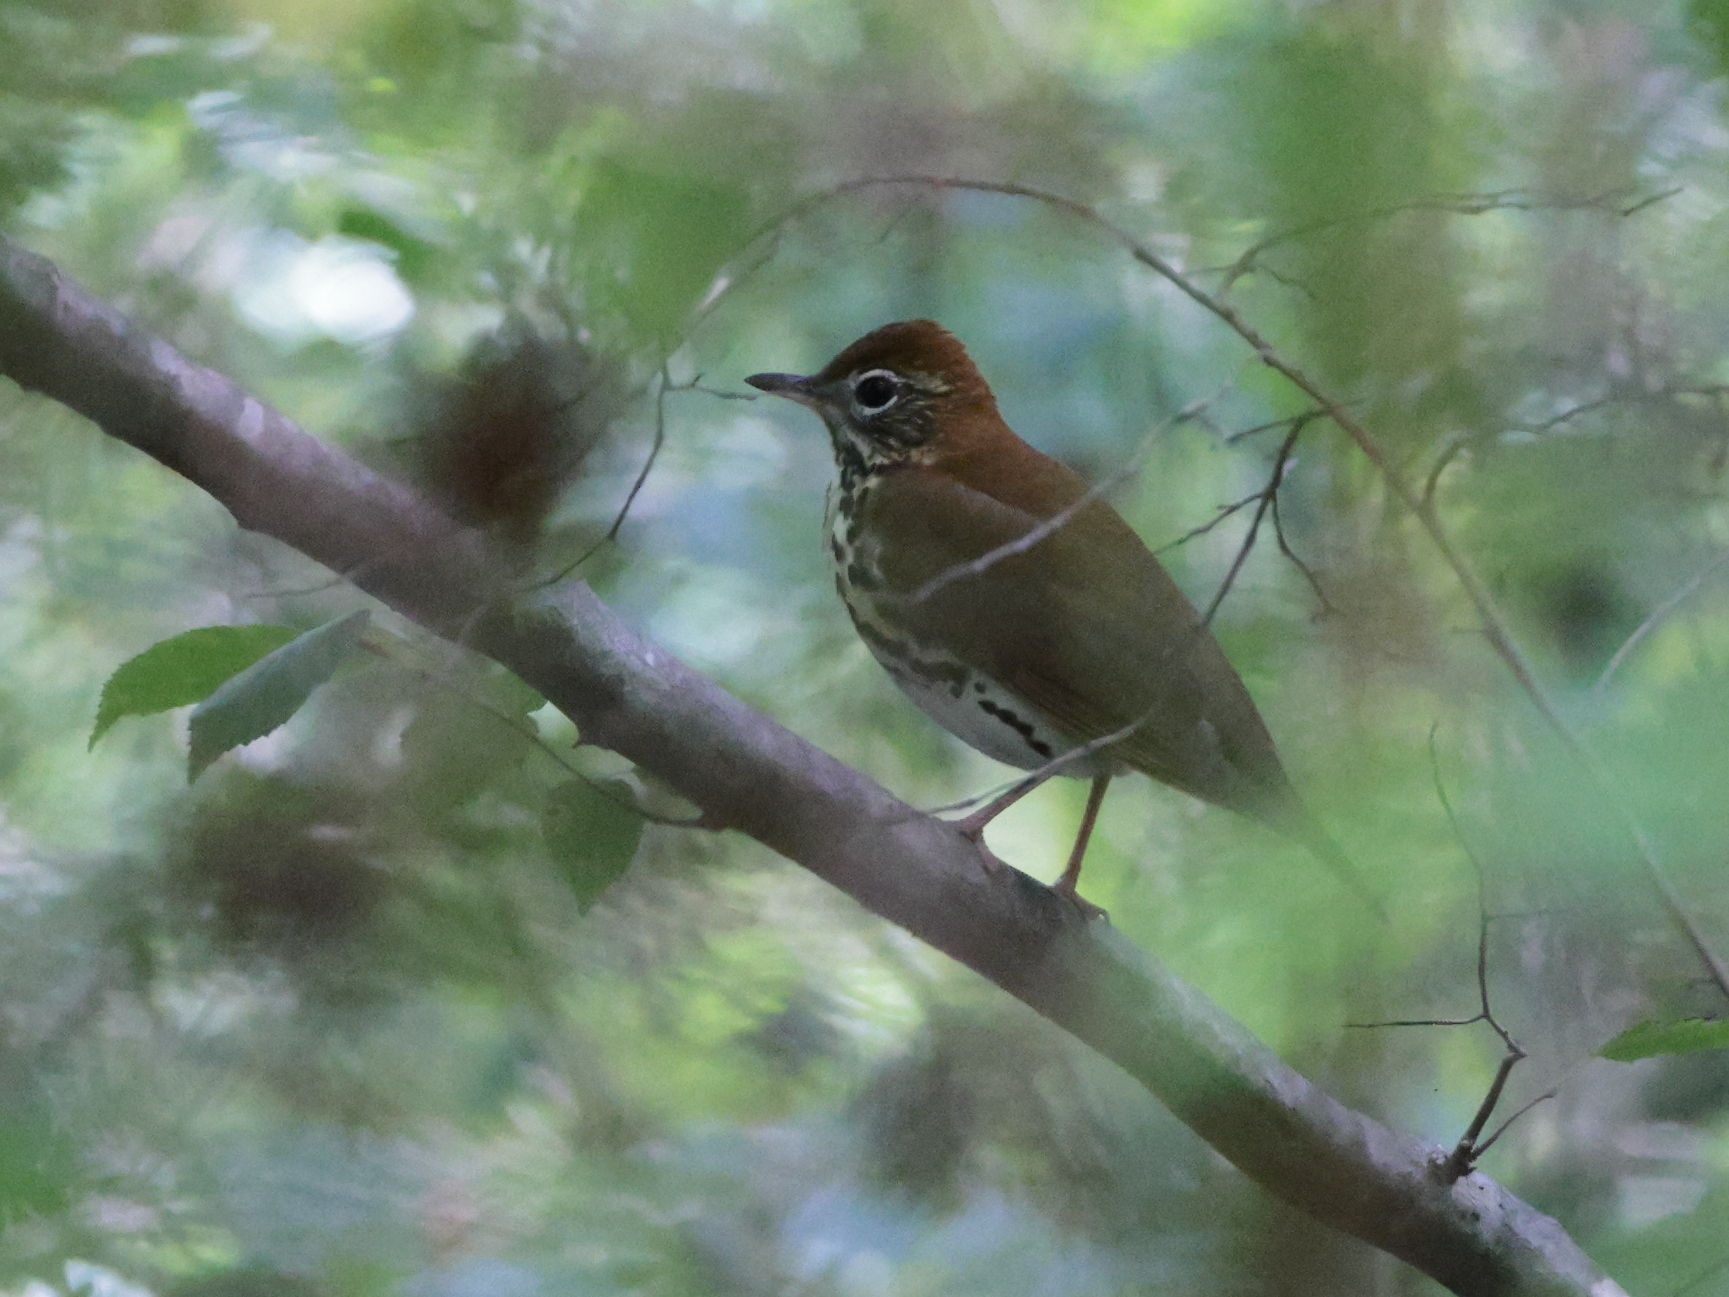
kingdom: Animalia
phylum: Chordata
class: Aves
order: Passeriformes
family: Turdidae
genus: Hylocichla
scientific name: Hylocichla mustelina
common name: Wood thrush
